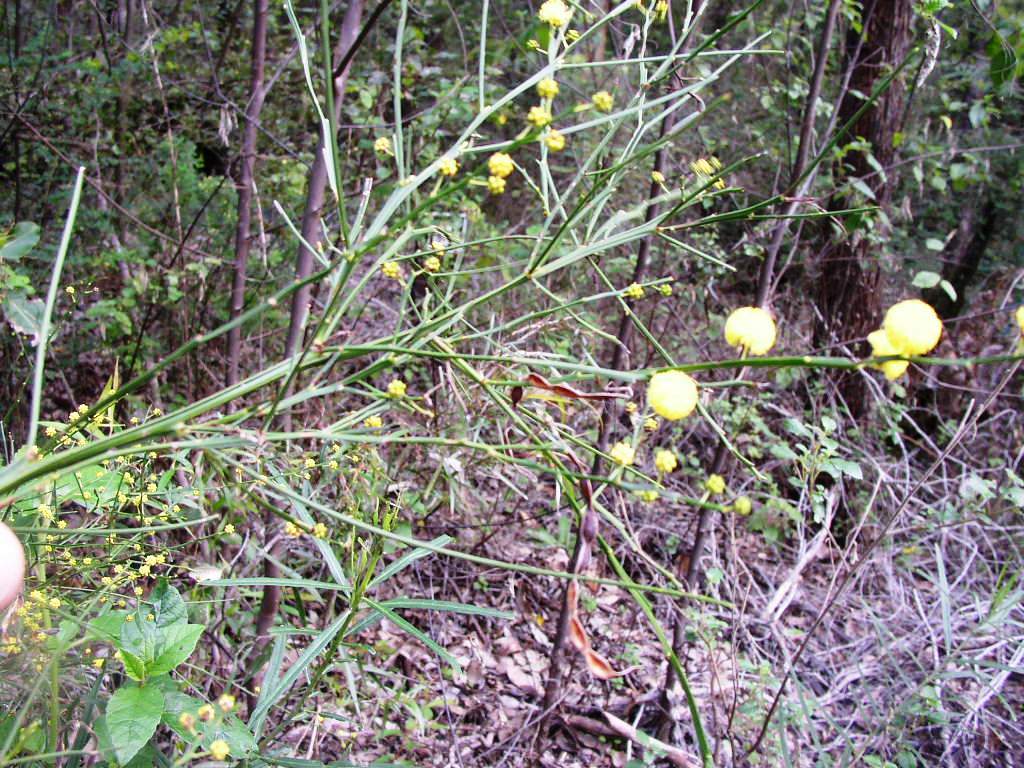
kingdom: Plantae
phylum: Tracheophyta
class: Magnoliopsida
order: Fabales
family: Fabaceae
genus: Acacia
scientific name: Acacia extensa
